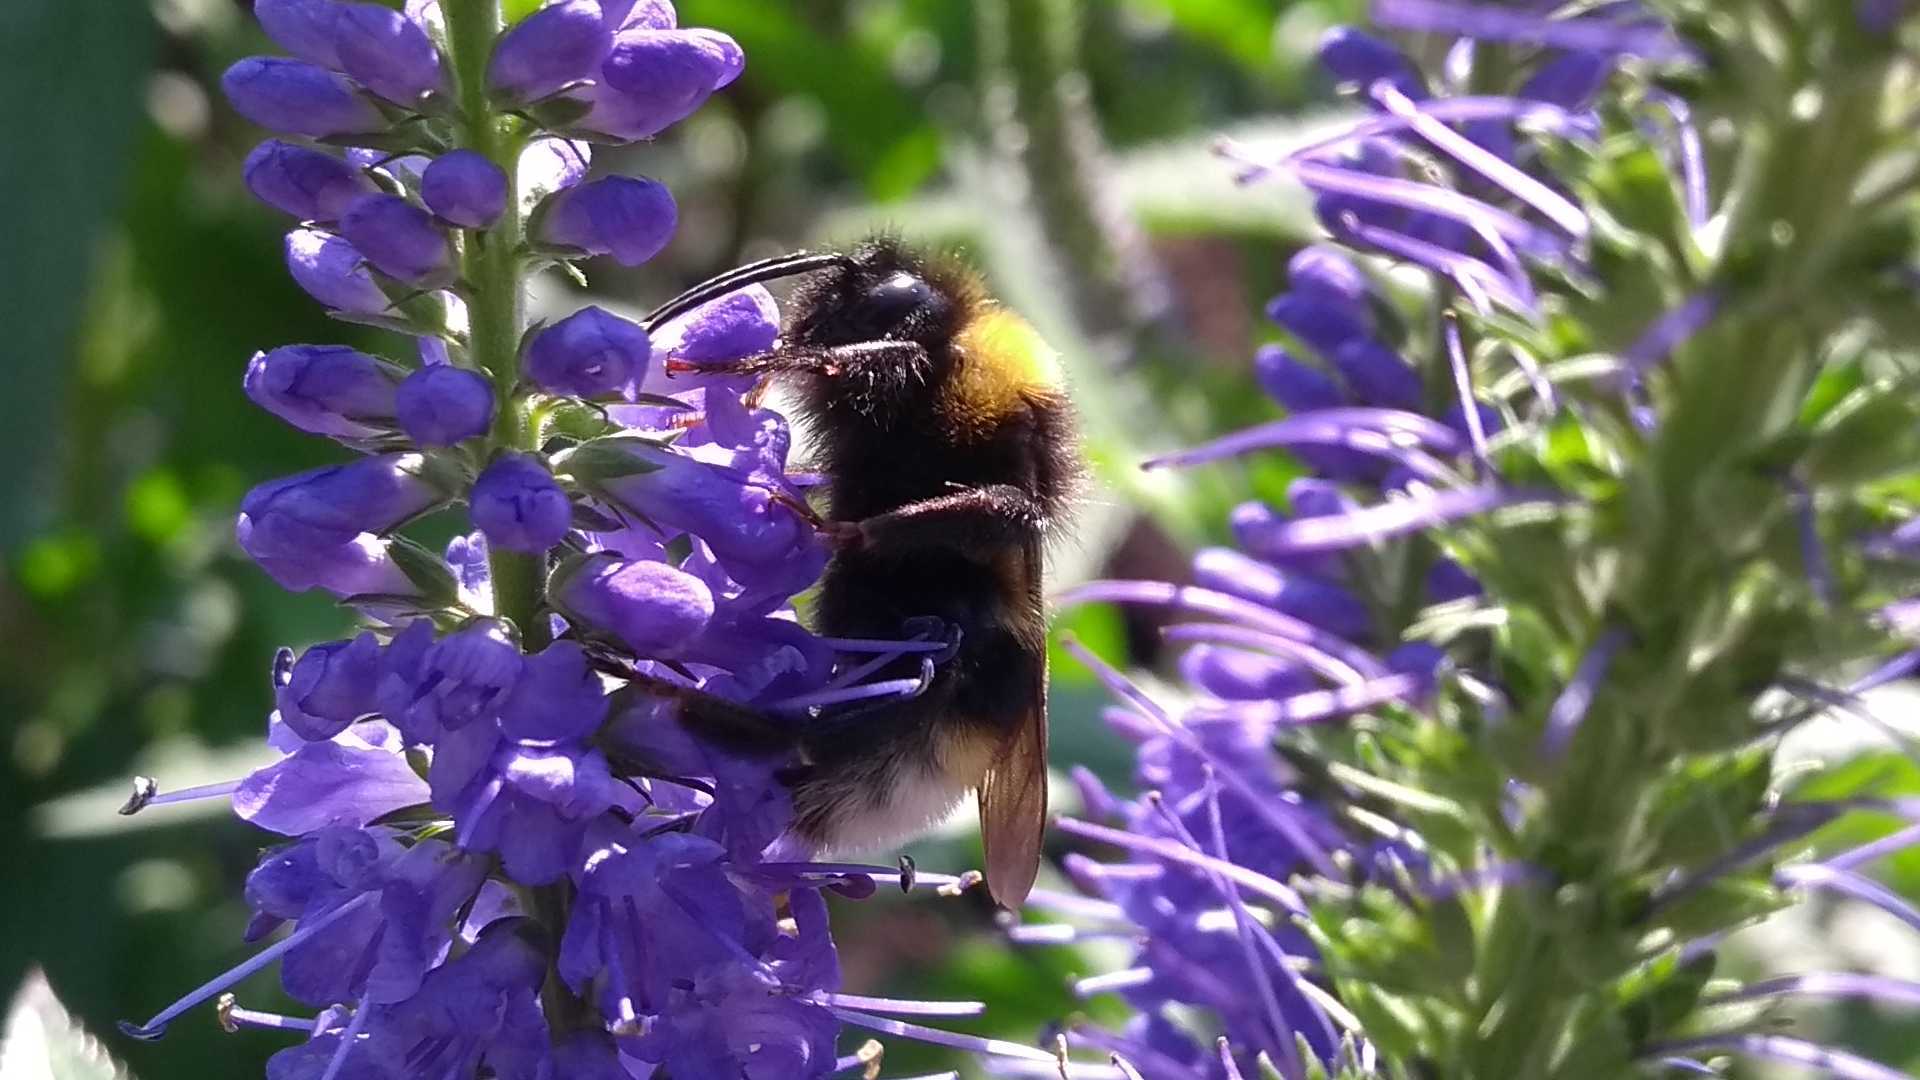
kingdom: Animalia
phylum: Arthropoda
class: Insecta
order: Hymenoptera
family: Apidae
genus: Bombus
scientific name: Bombus
